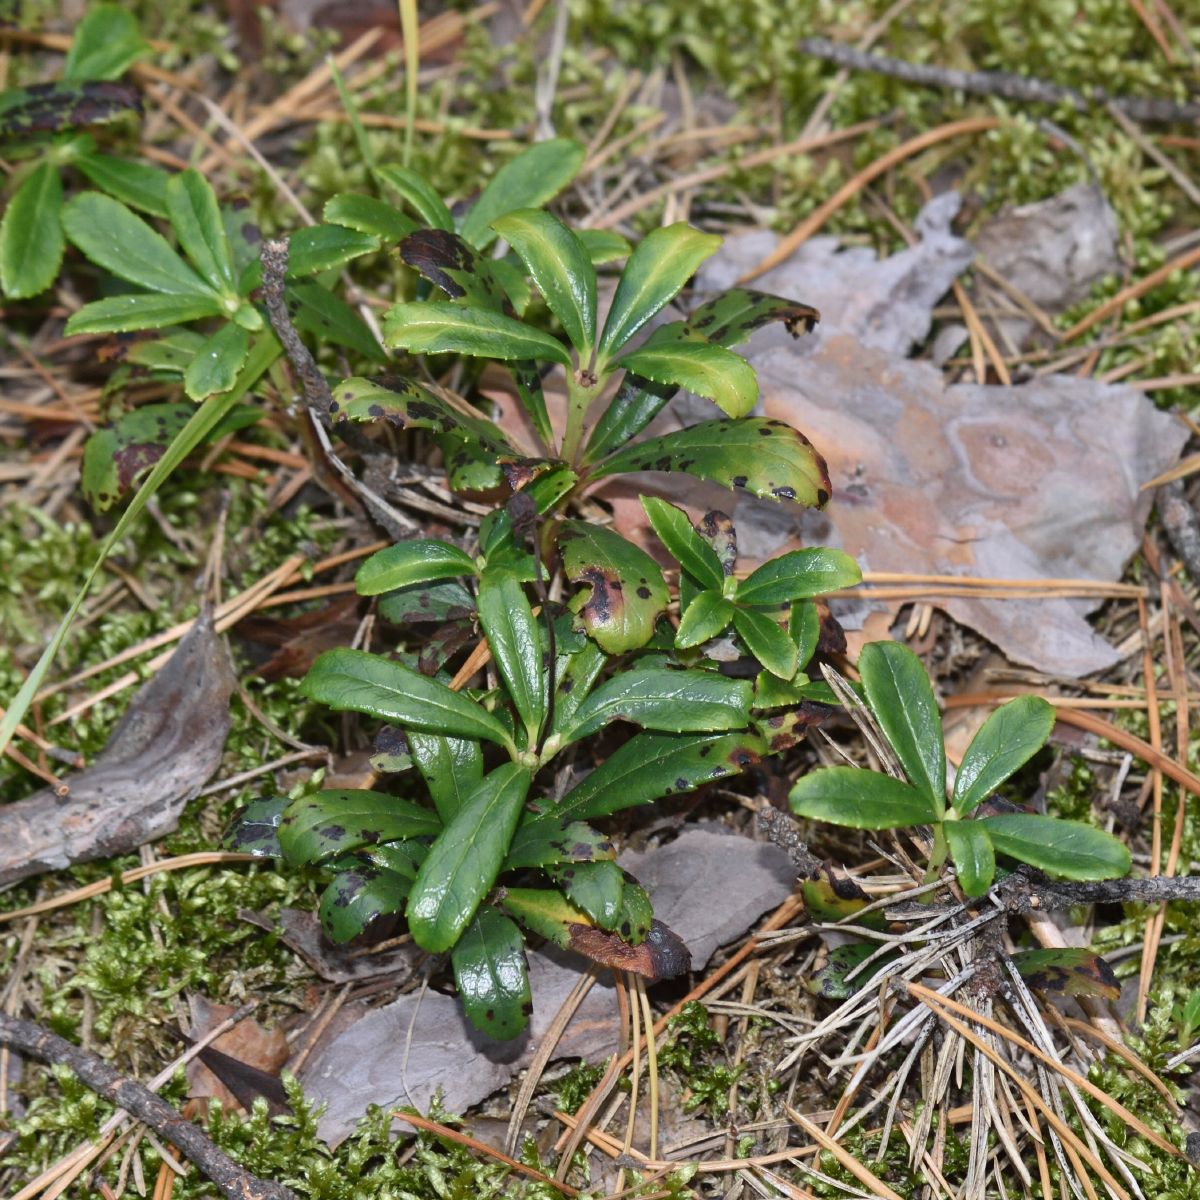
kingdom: Plantae
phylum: Tracheophyta
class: Magnoliopsida
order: Ericales
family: Ericaceae
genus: Chimaphila
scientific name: Chimaphila umbellata
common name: Pipsissewa
